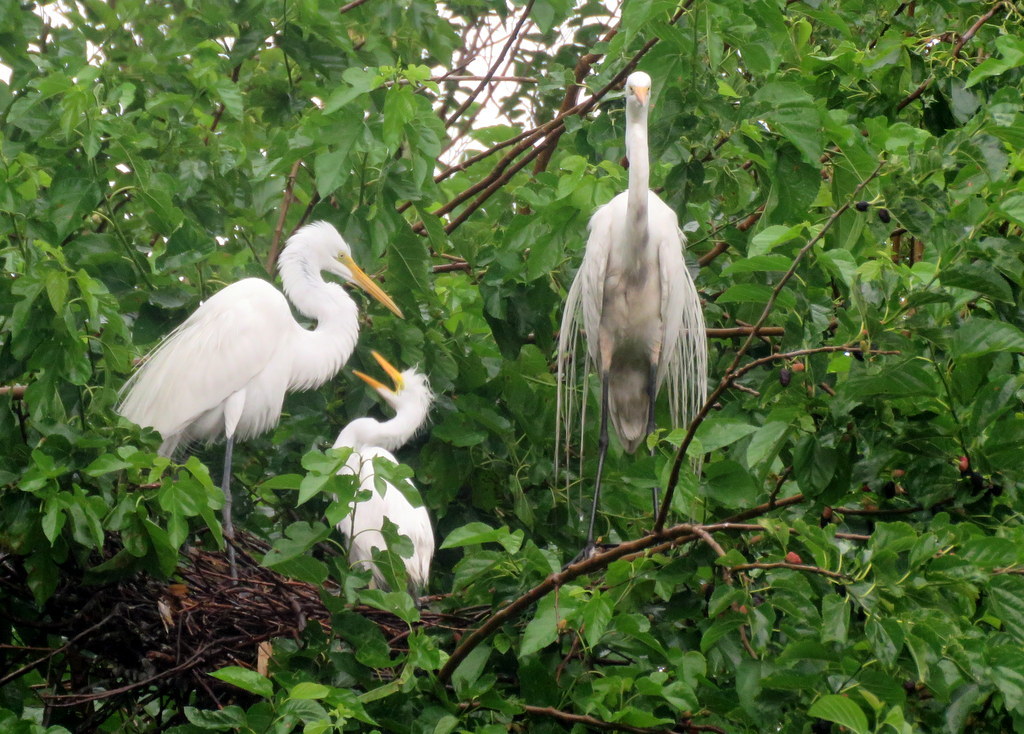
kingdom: Animalia
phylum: Chordata
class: Aves
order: Pelecaniformes
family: Ardeidae
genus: Ardea
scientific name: Ardea alba
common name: Great egret
